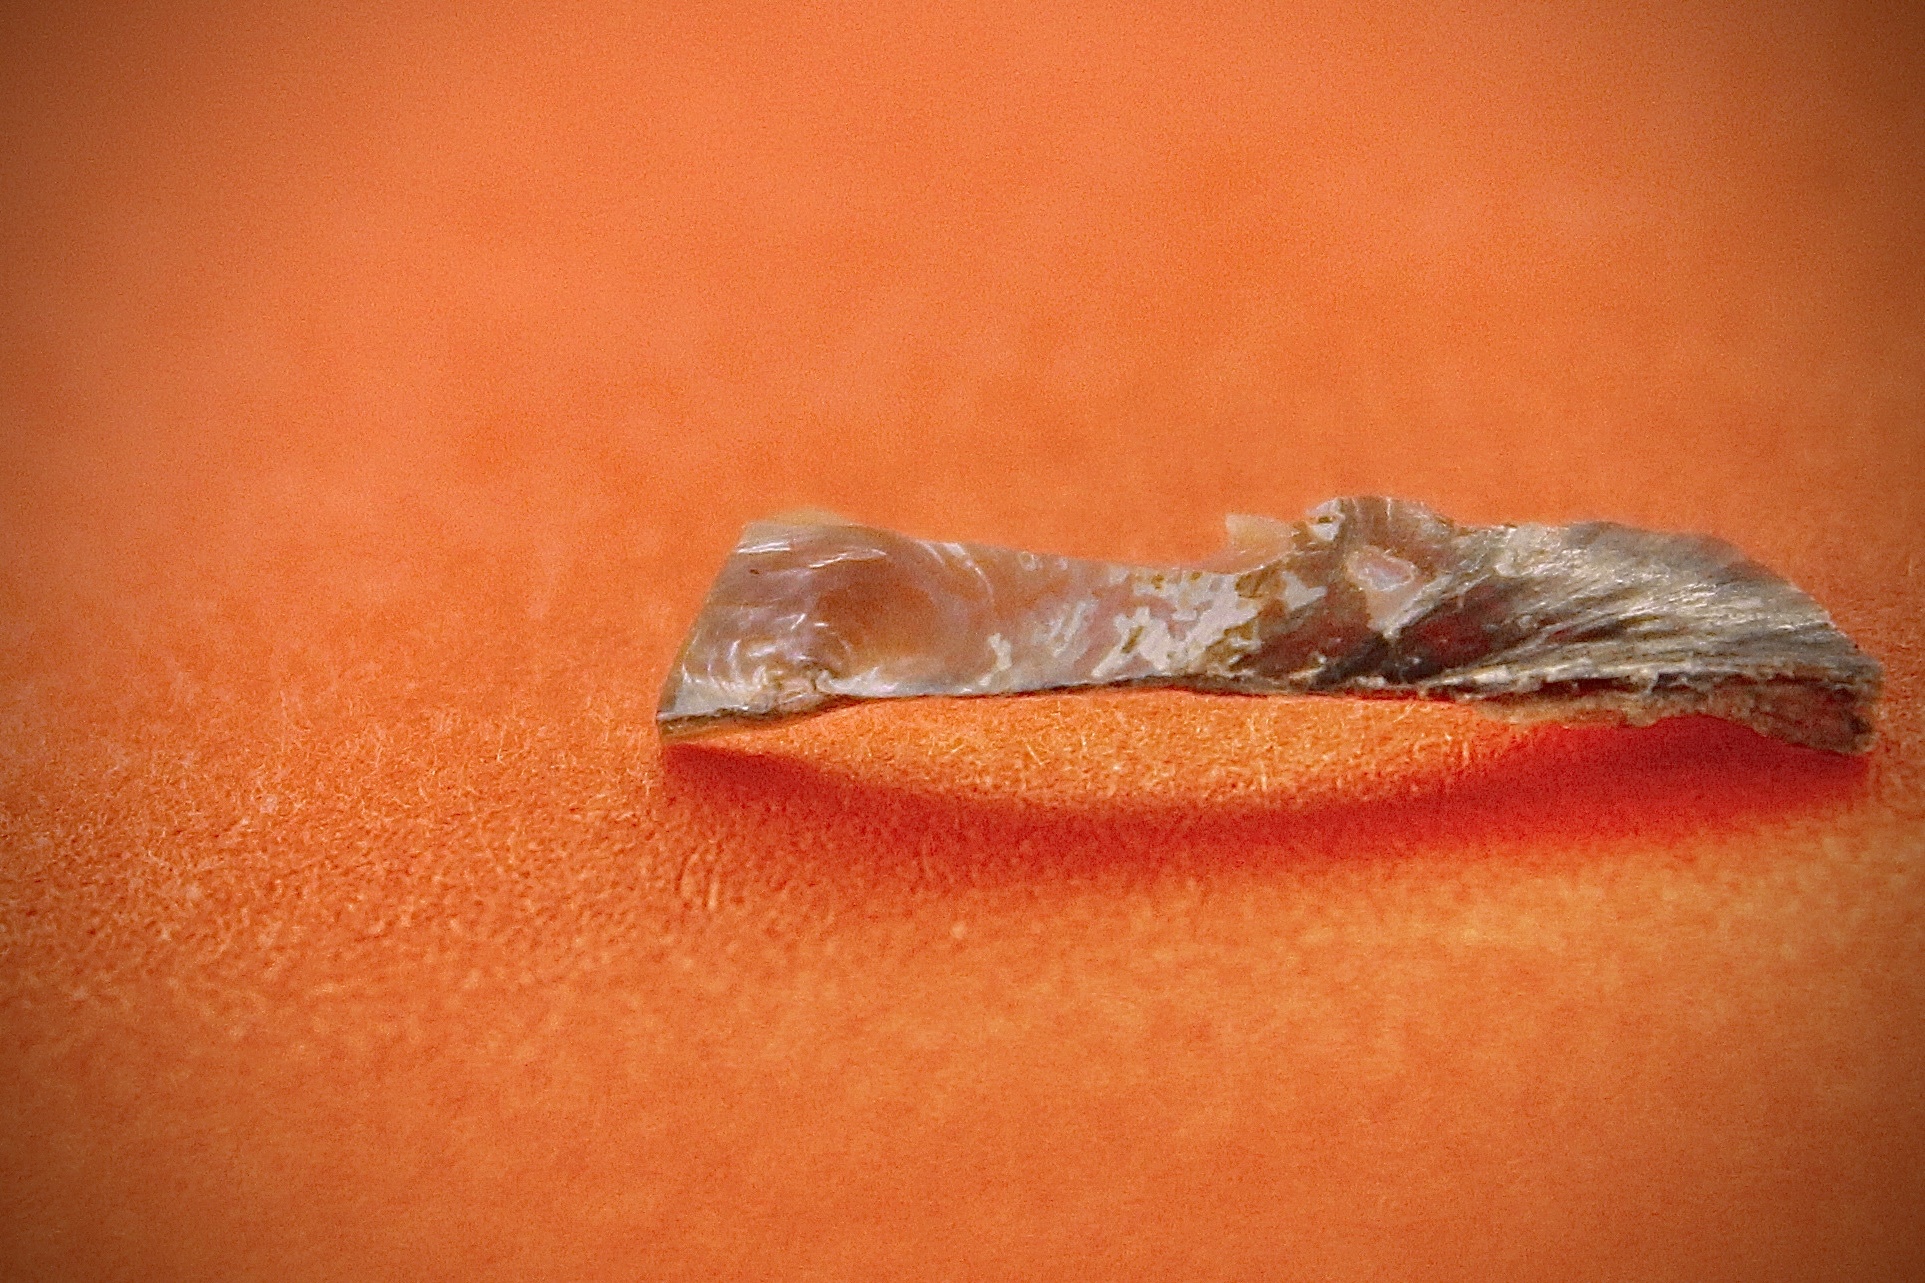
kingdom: Animalia
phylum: Mollusca
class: Bivalvia
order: Unionida
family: Unionidae
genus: Utterbackia
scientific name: Utterbackia imbecillis
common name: Paper pondshell
